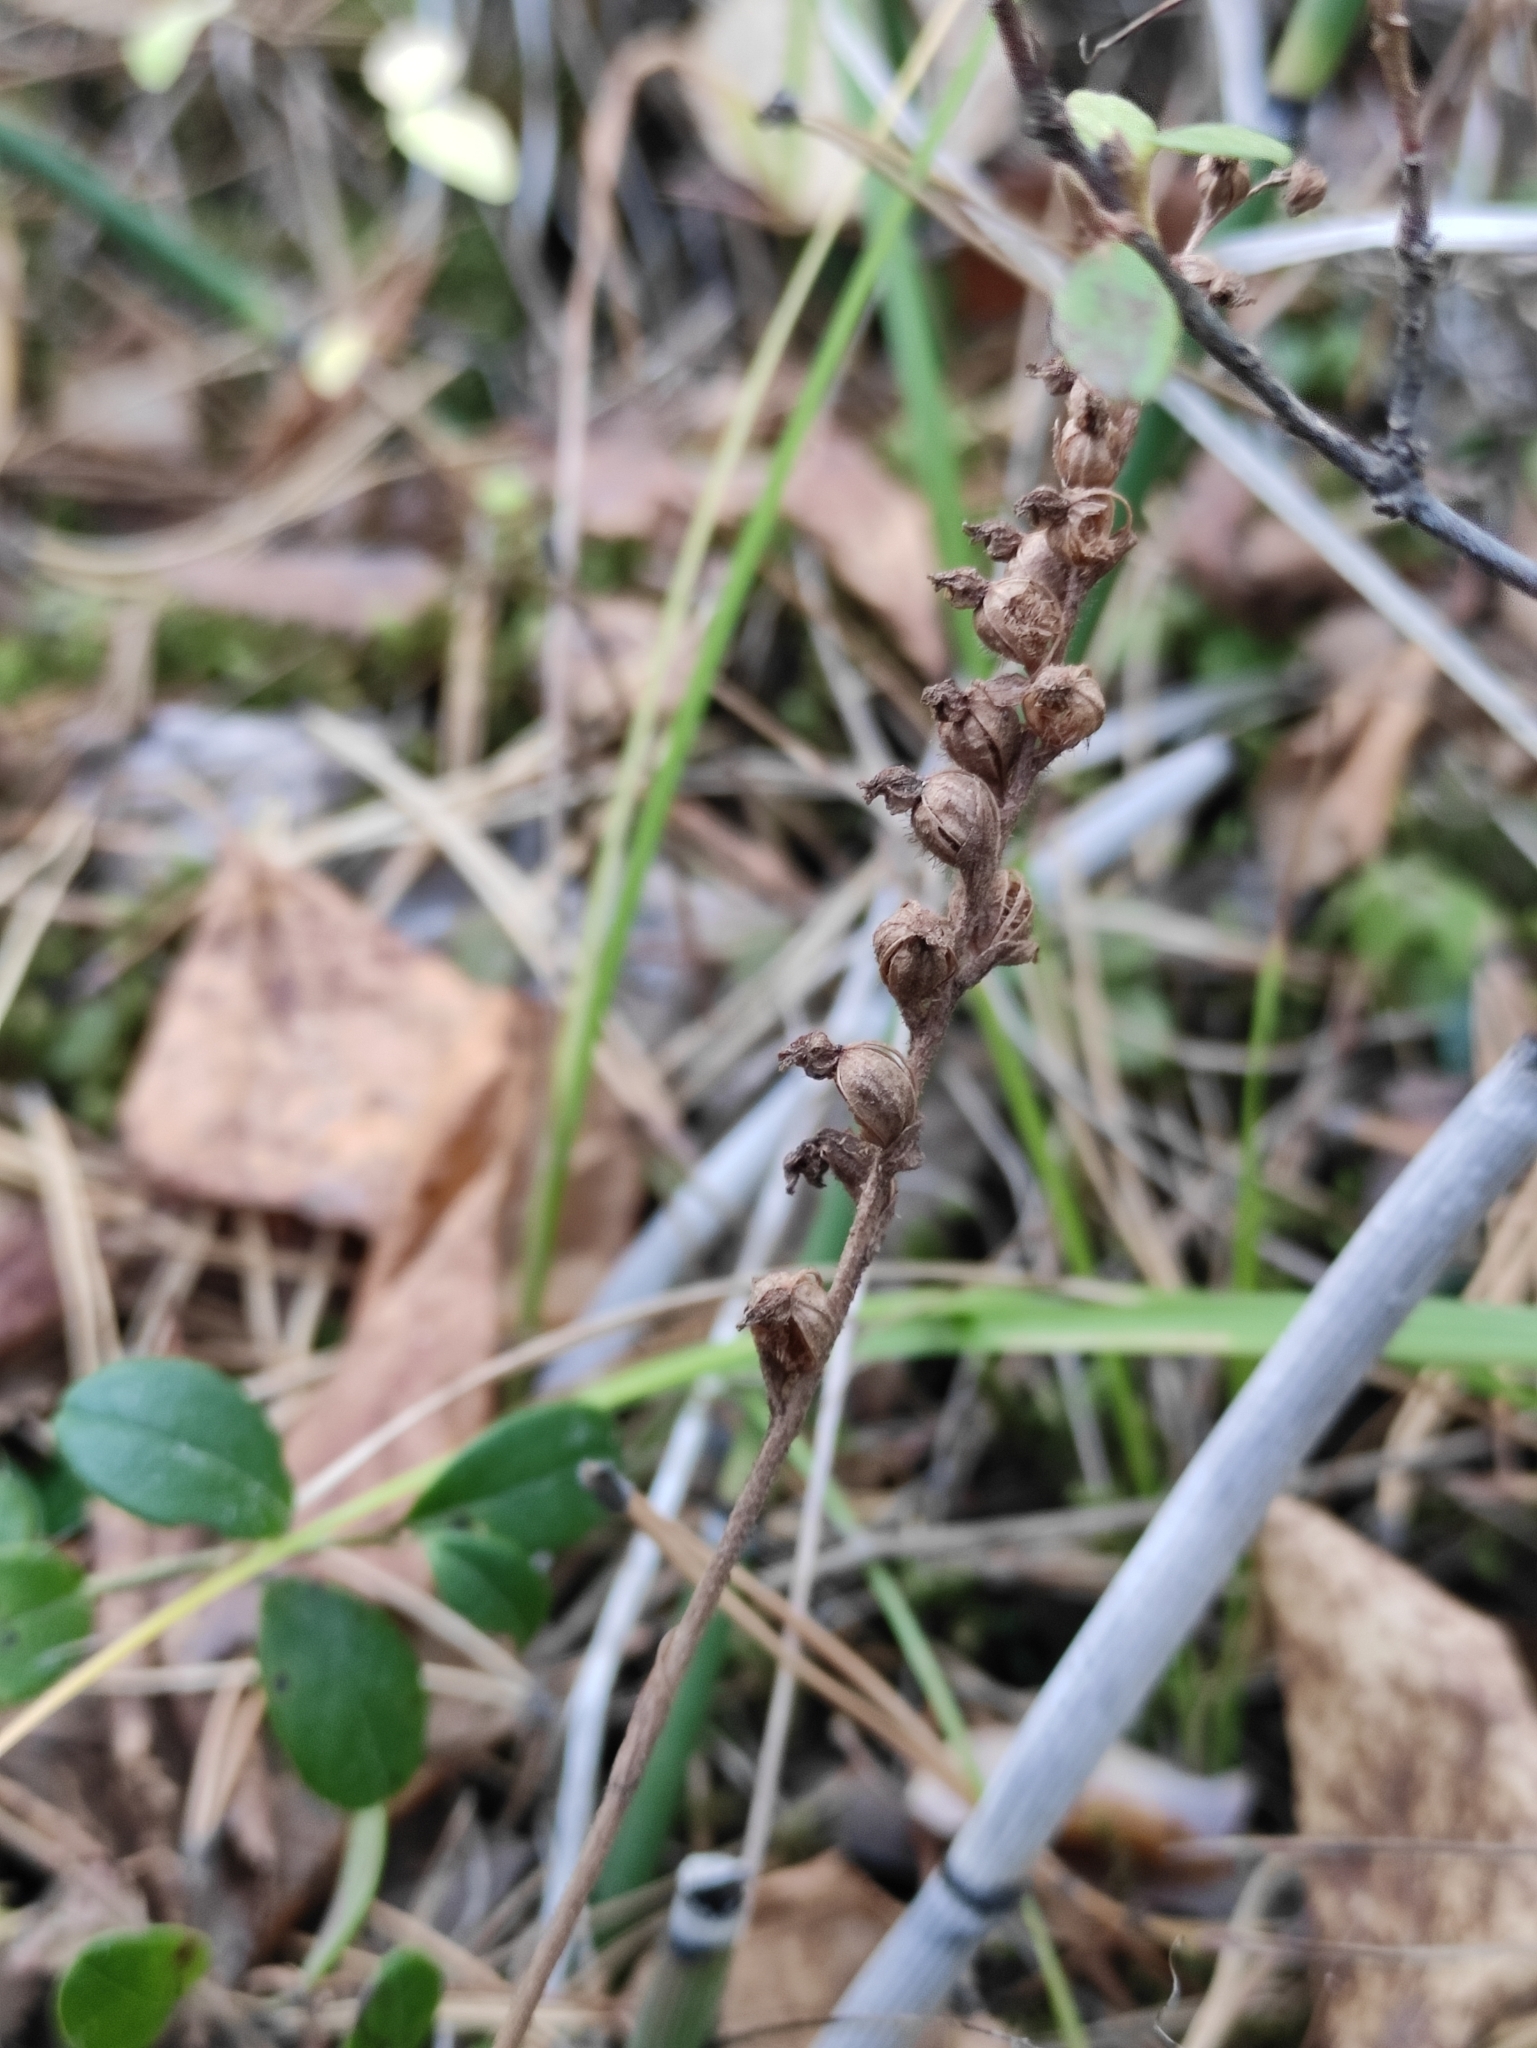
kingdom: Plantae
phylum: Tracheophyta
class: Liliopsida
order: Asparagales
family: Orchidaceae
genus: Goodyera
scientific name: Goodyera repens
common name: Creeping lady's-tresses
